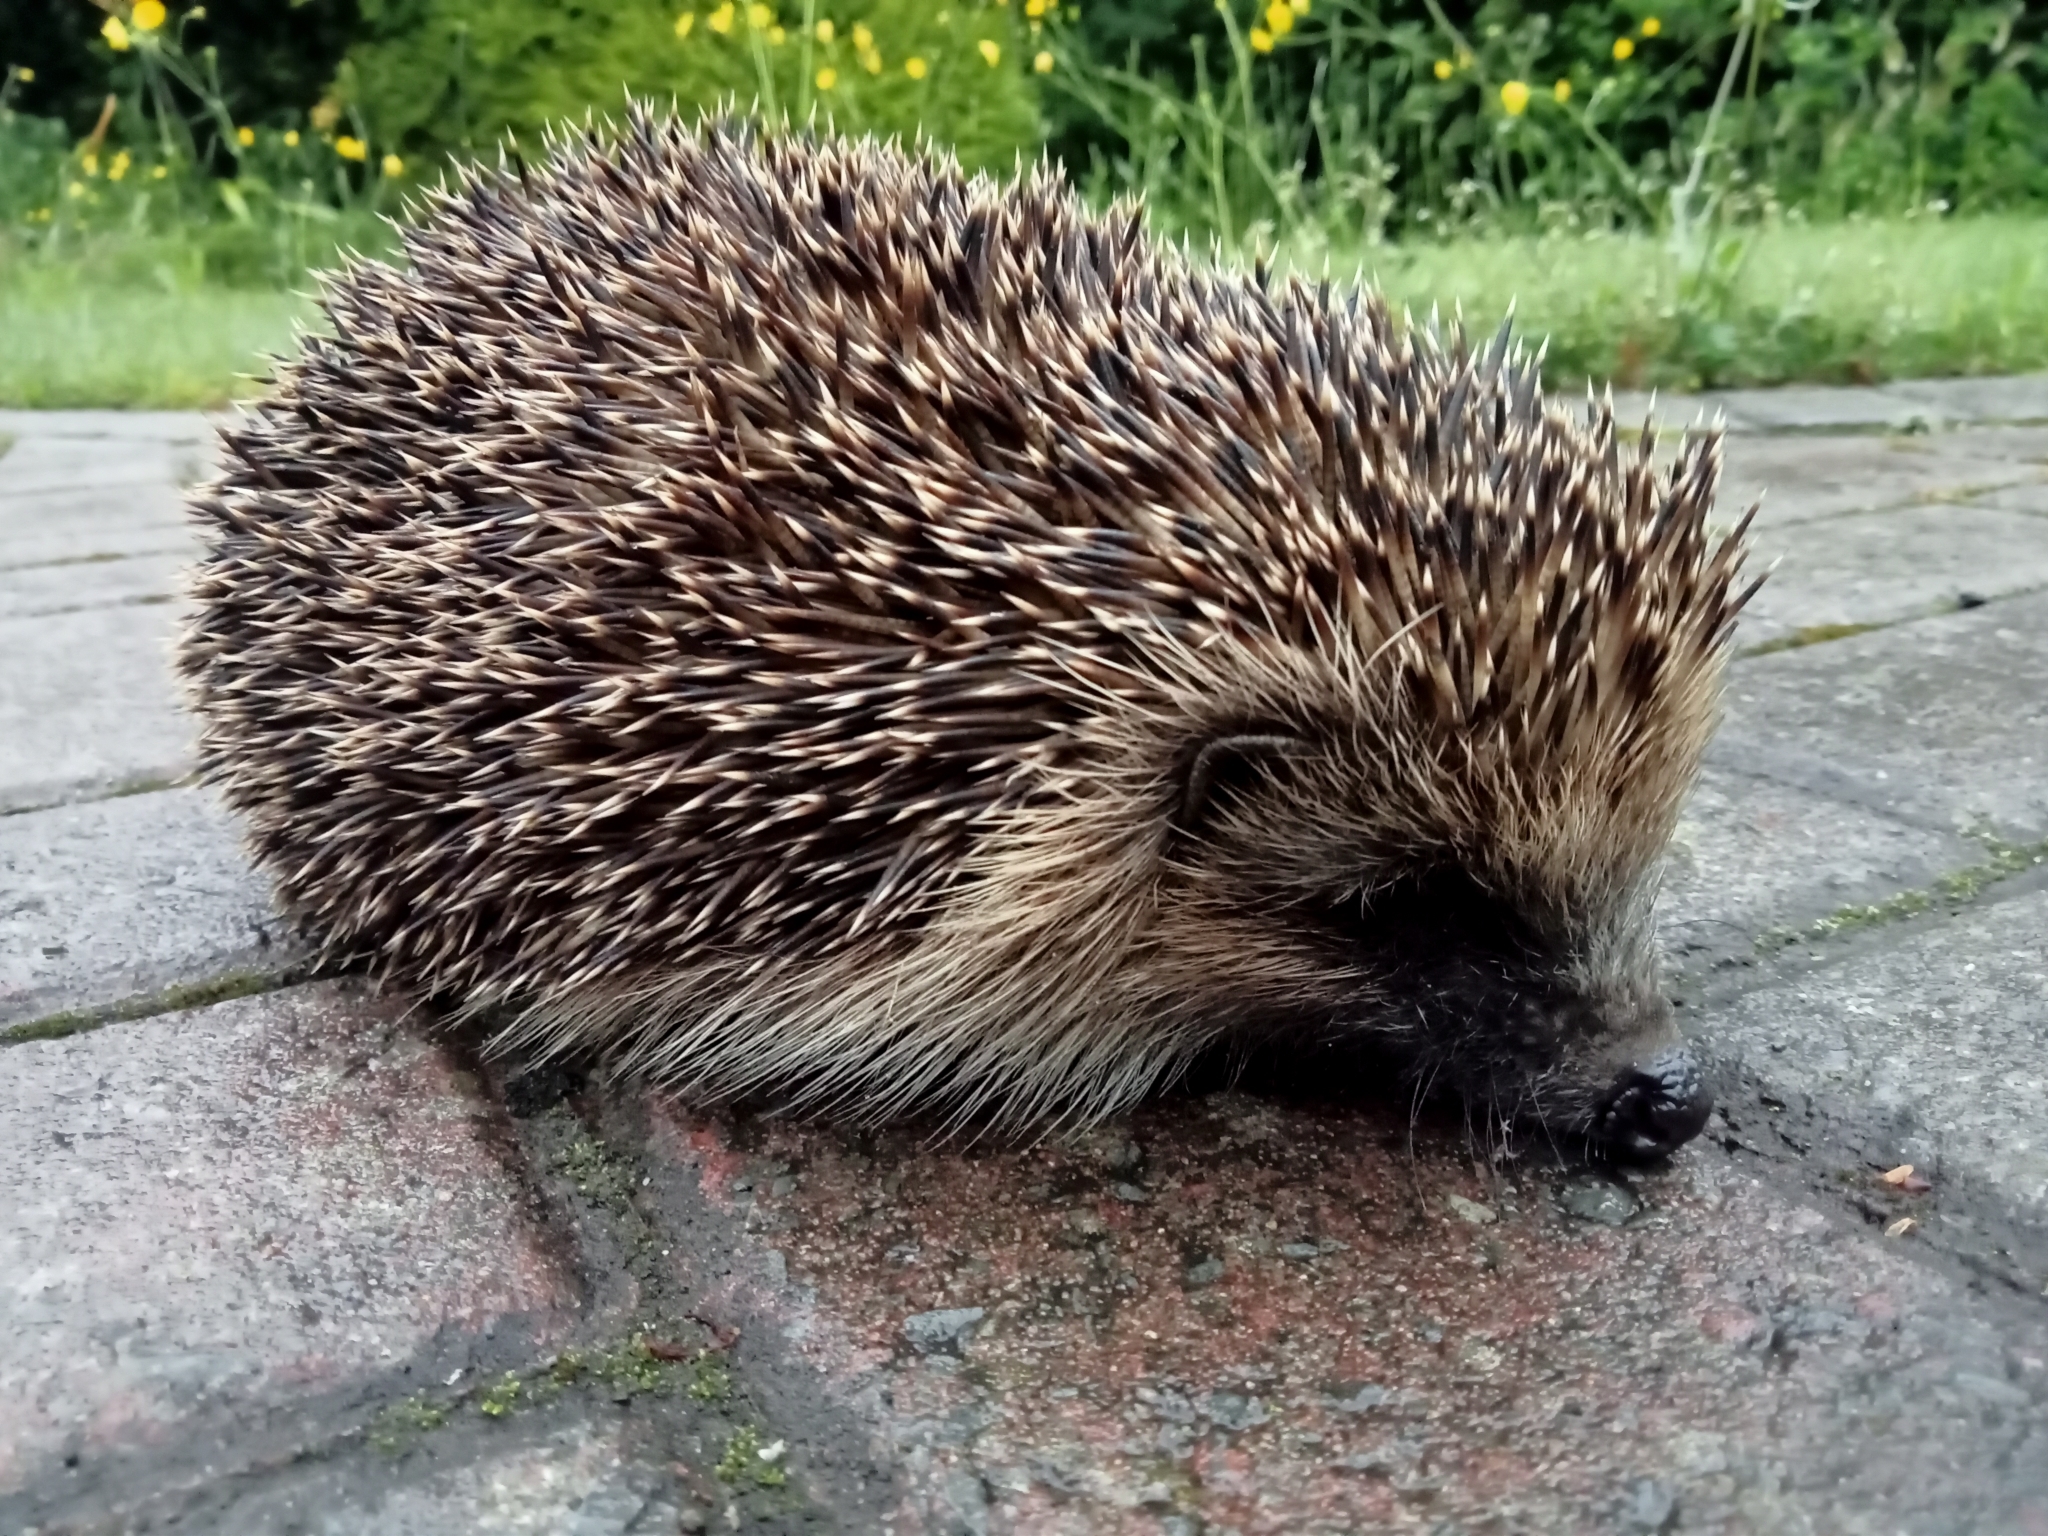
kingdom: Animalia
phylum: Chordata
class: Mammalia
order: Erinaceomorpha
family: Erinaceidae
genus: Erinaceus
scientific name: Erinaceus europaeus
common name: West european hedgehog
